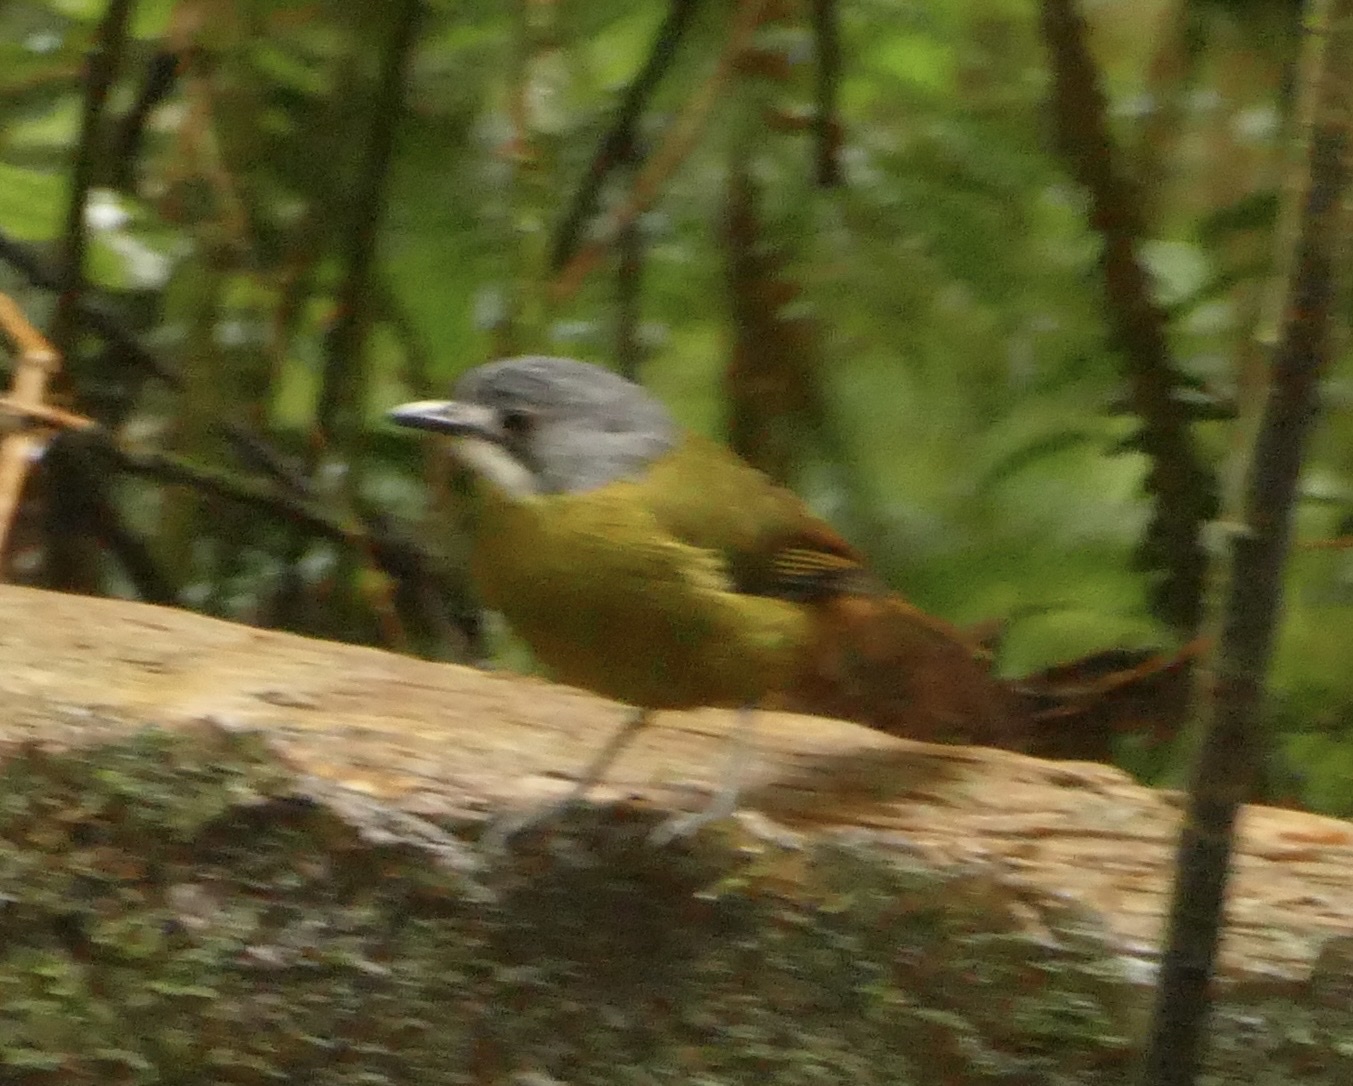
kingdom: Animalia
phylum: Chordata
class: Aves
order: Passeriformes
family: Petroicidae
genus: Pachycephalopsis
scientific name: Pachycephalopsis hattamensis
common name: Green-backed robin
